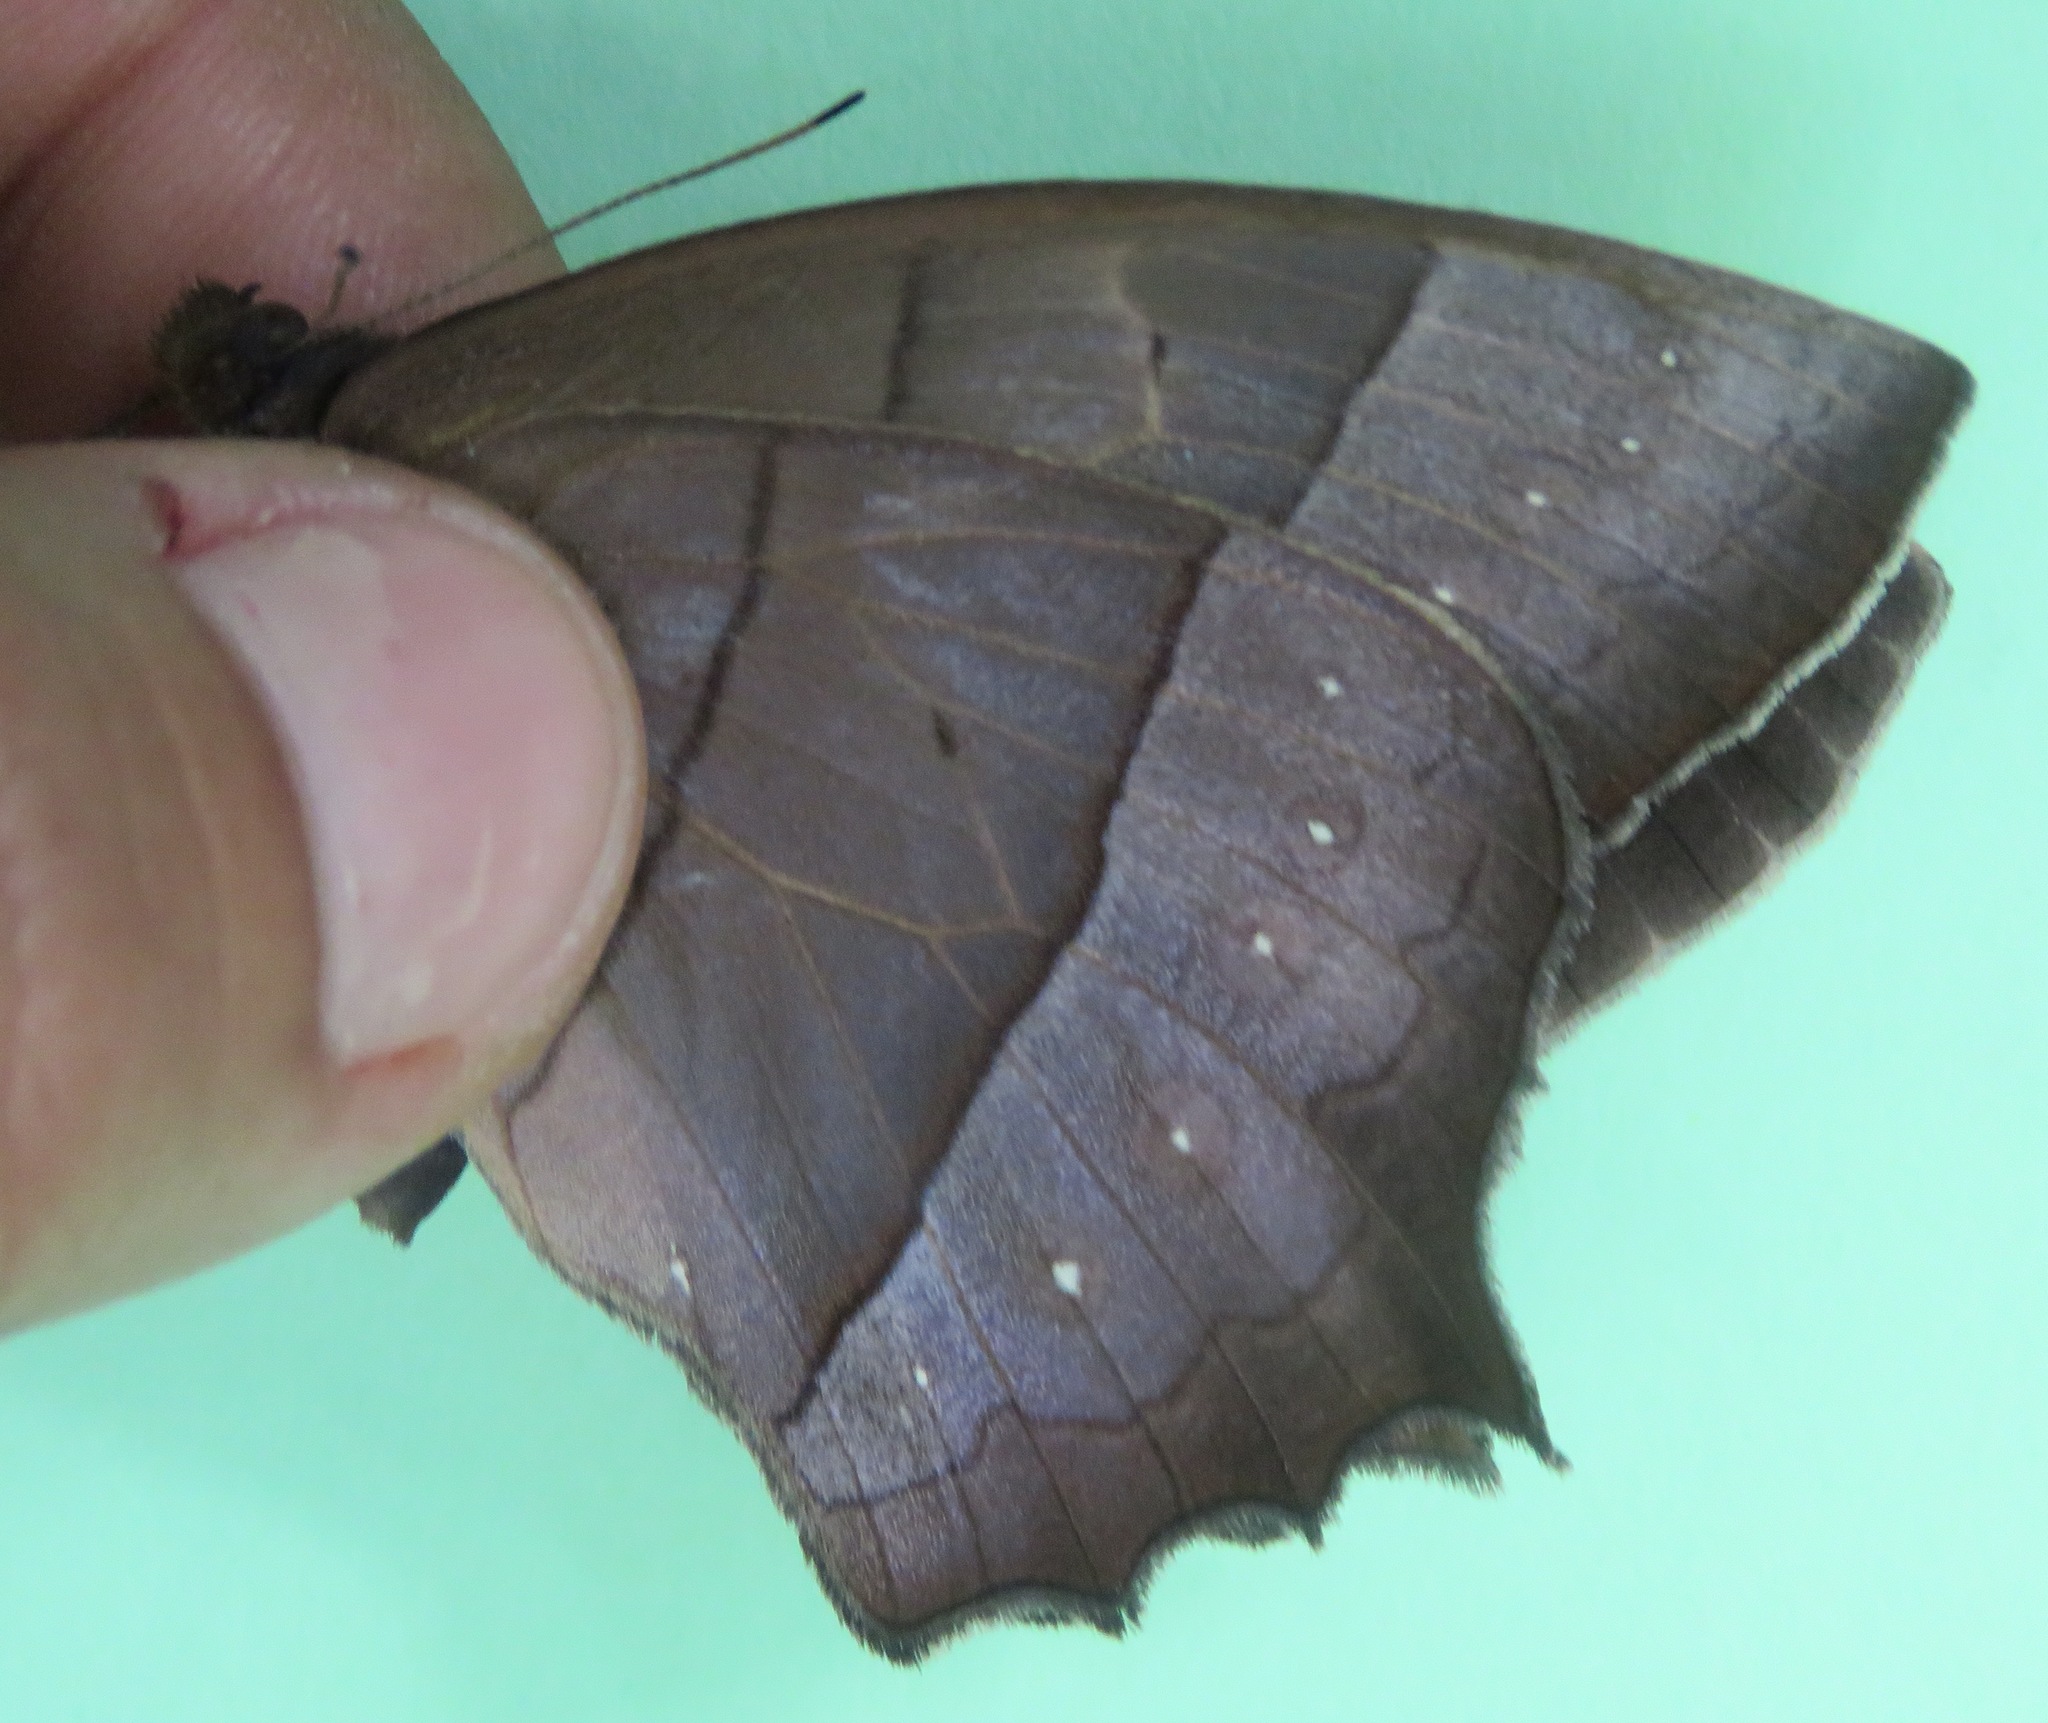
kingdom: Animalia
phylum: Arthropoda
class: Insecta
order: Lepidoptera
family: Nymphalidae
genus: Taygetis
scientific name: Taygetis virgilia
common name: Stub-tailed satyr
